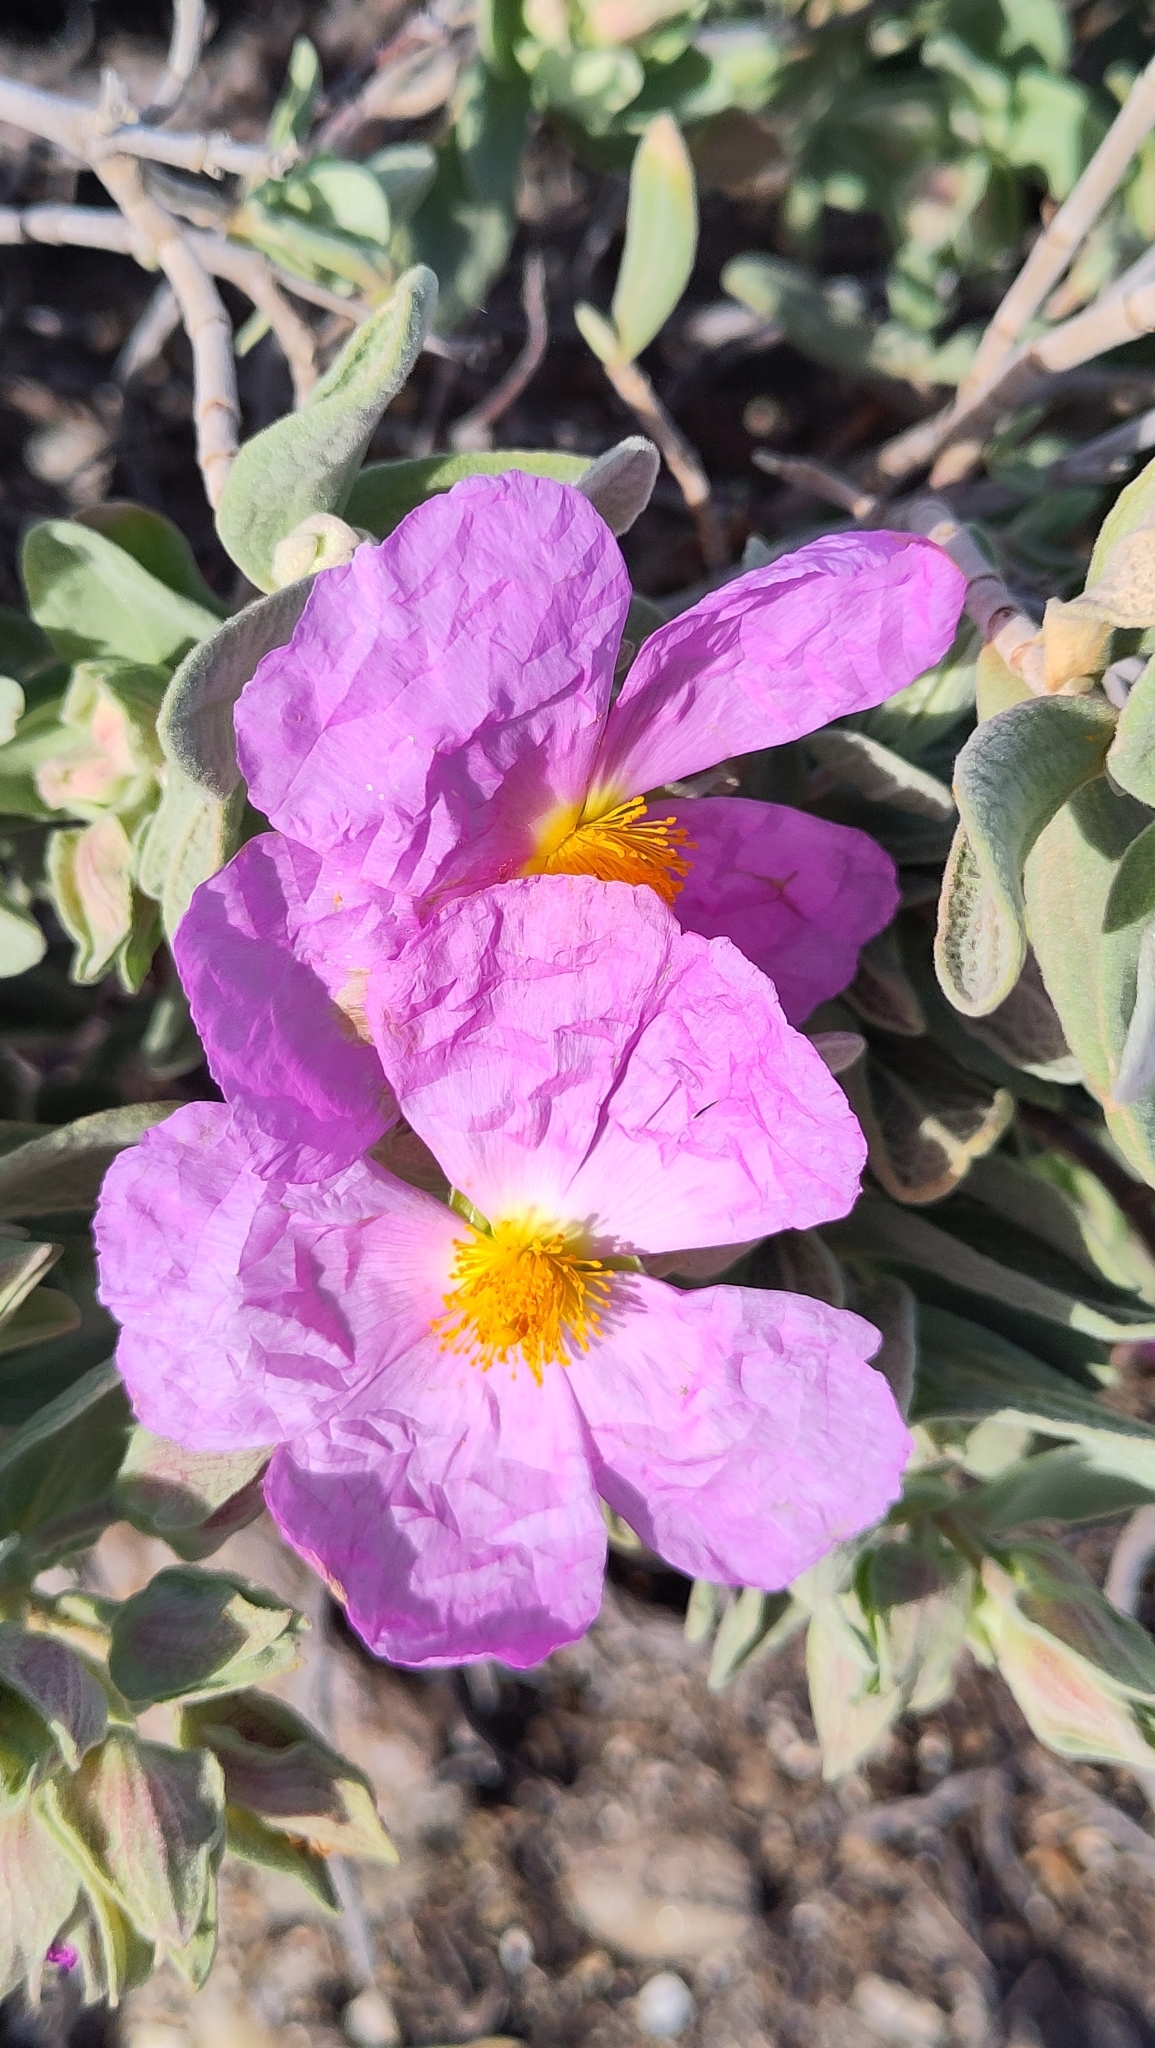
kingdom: Plantae
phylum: Tracheophyta
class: Magnoliopsida
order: Malvales
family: Cistaceae
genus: Cistus
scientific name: Cistus albidus
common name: White-leaf rock-rose
